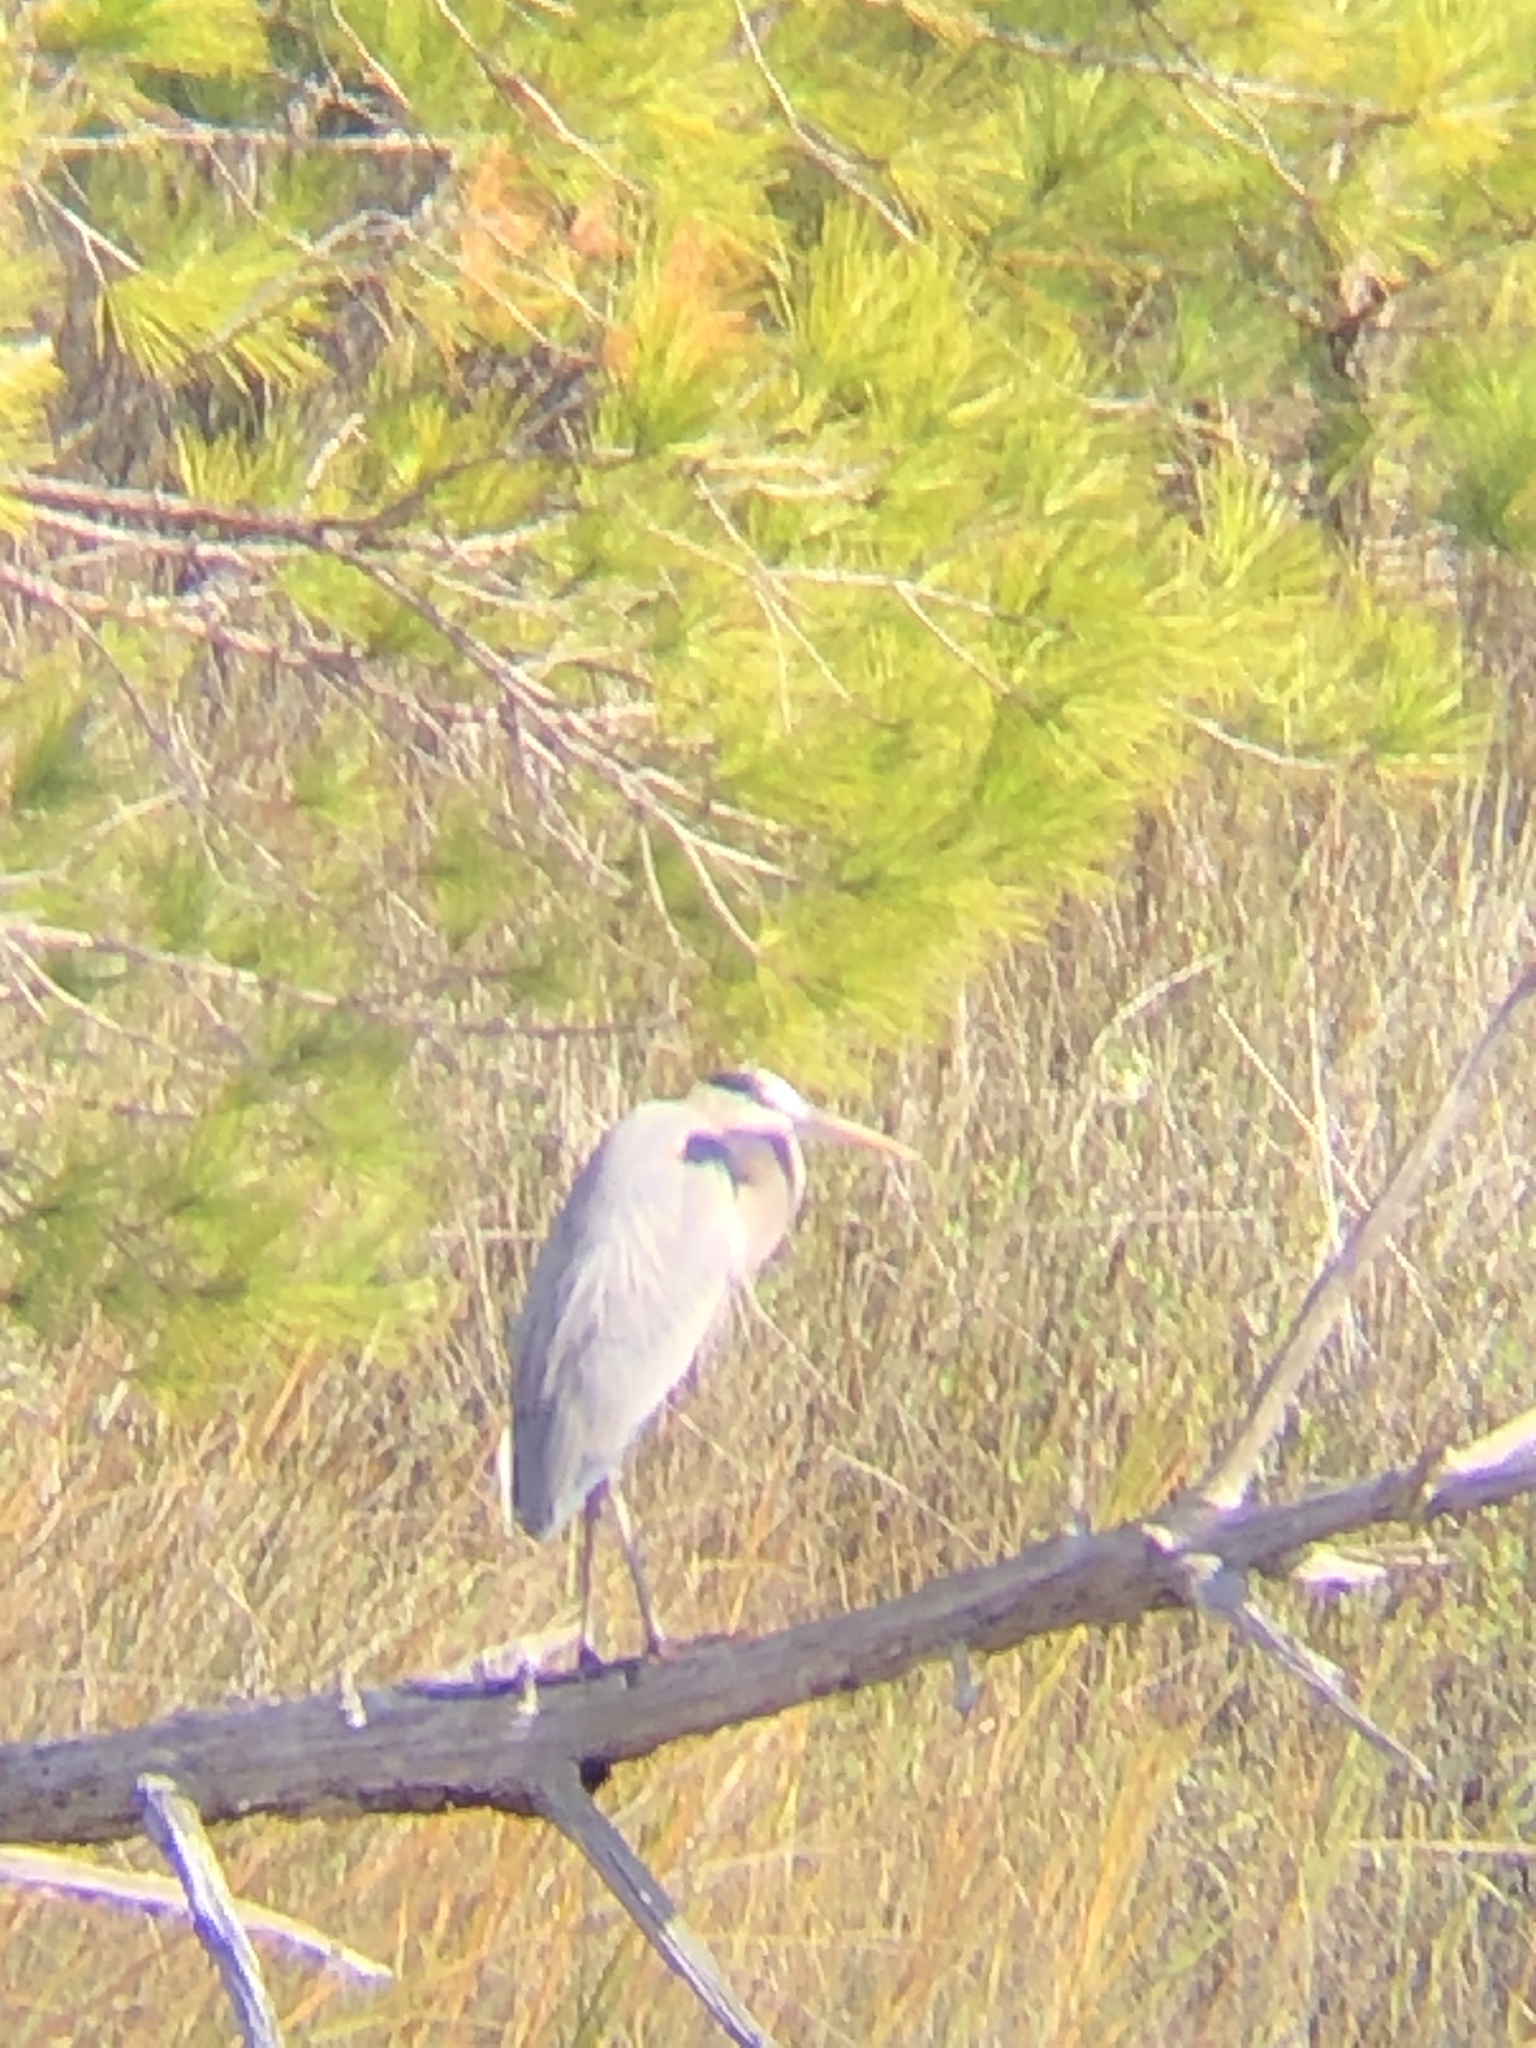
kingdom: Animalia
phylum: Chordata
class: Aves
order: Pelecaniformes
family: Ardeidae
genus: Ardea
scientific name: Ardea herodias
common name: Great blue heron
